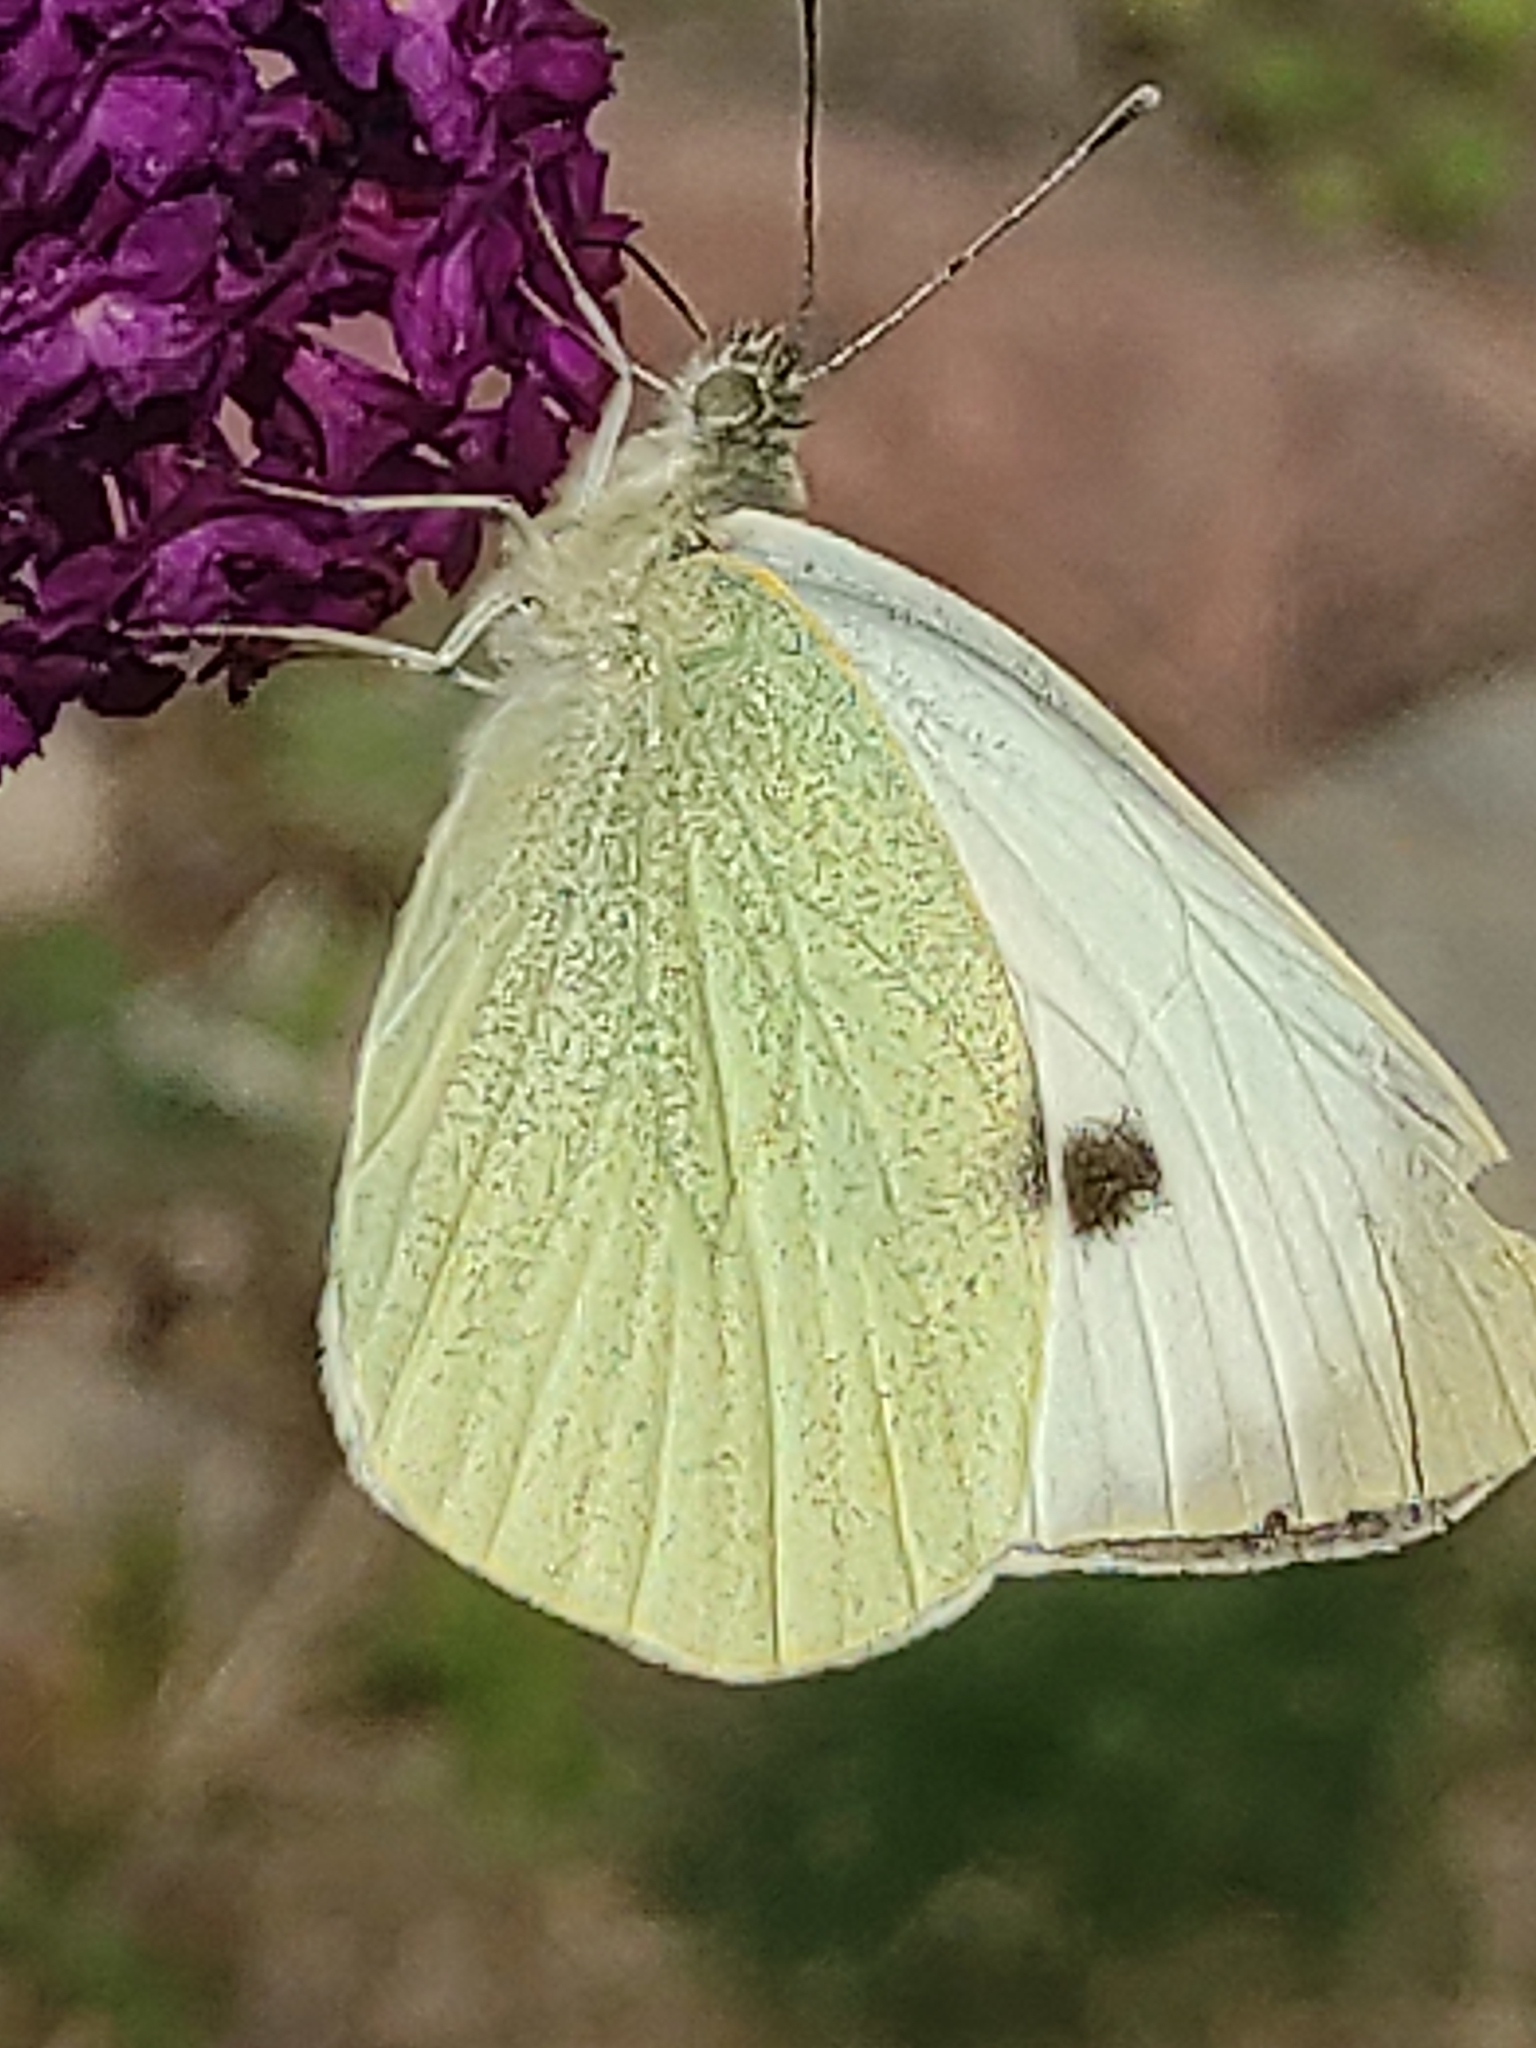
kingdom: Animalia
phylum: Arthropoda
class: Insecta
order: Lepidoptera
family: Pieridae
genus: Pieris
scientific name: Pieris brassicae
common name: Large white
